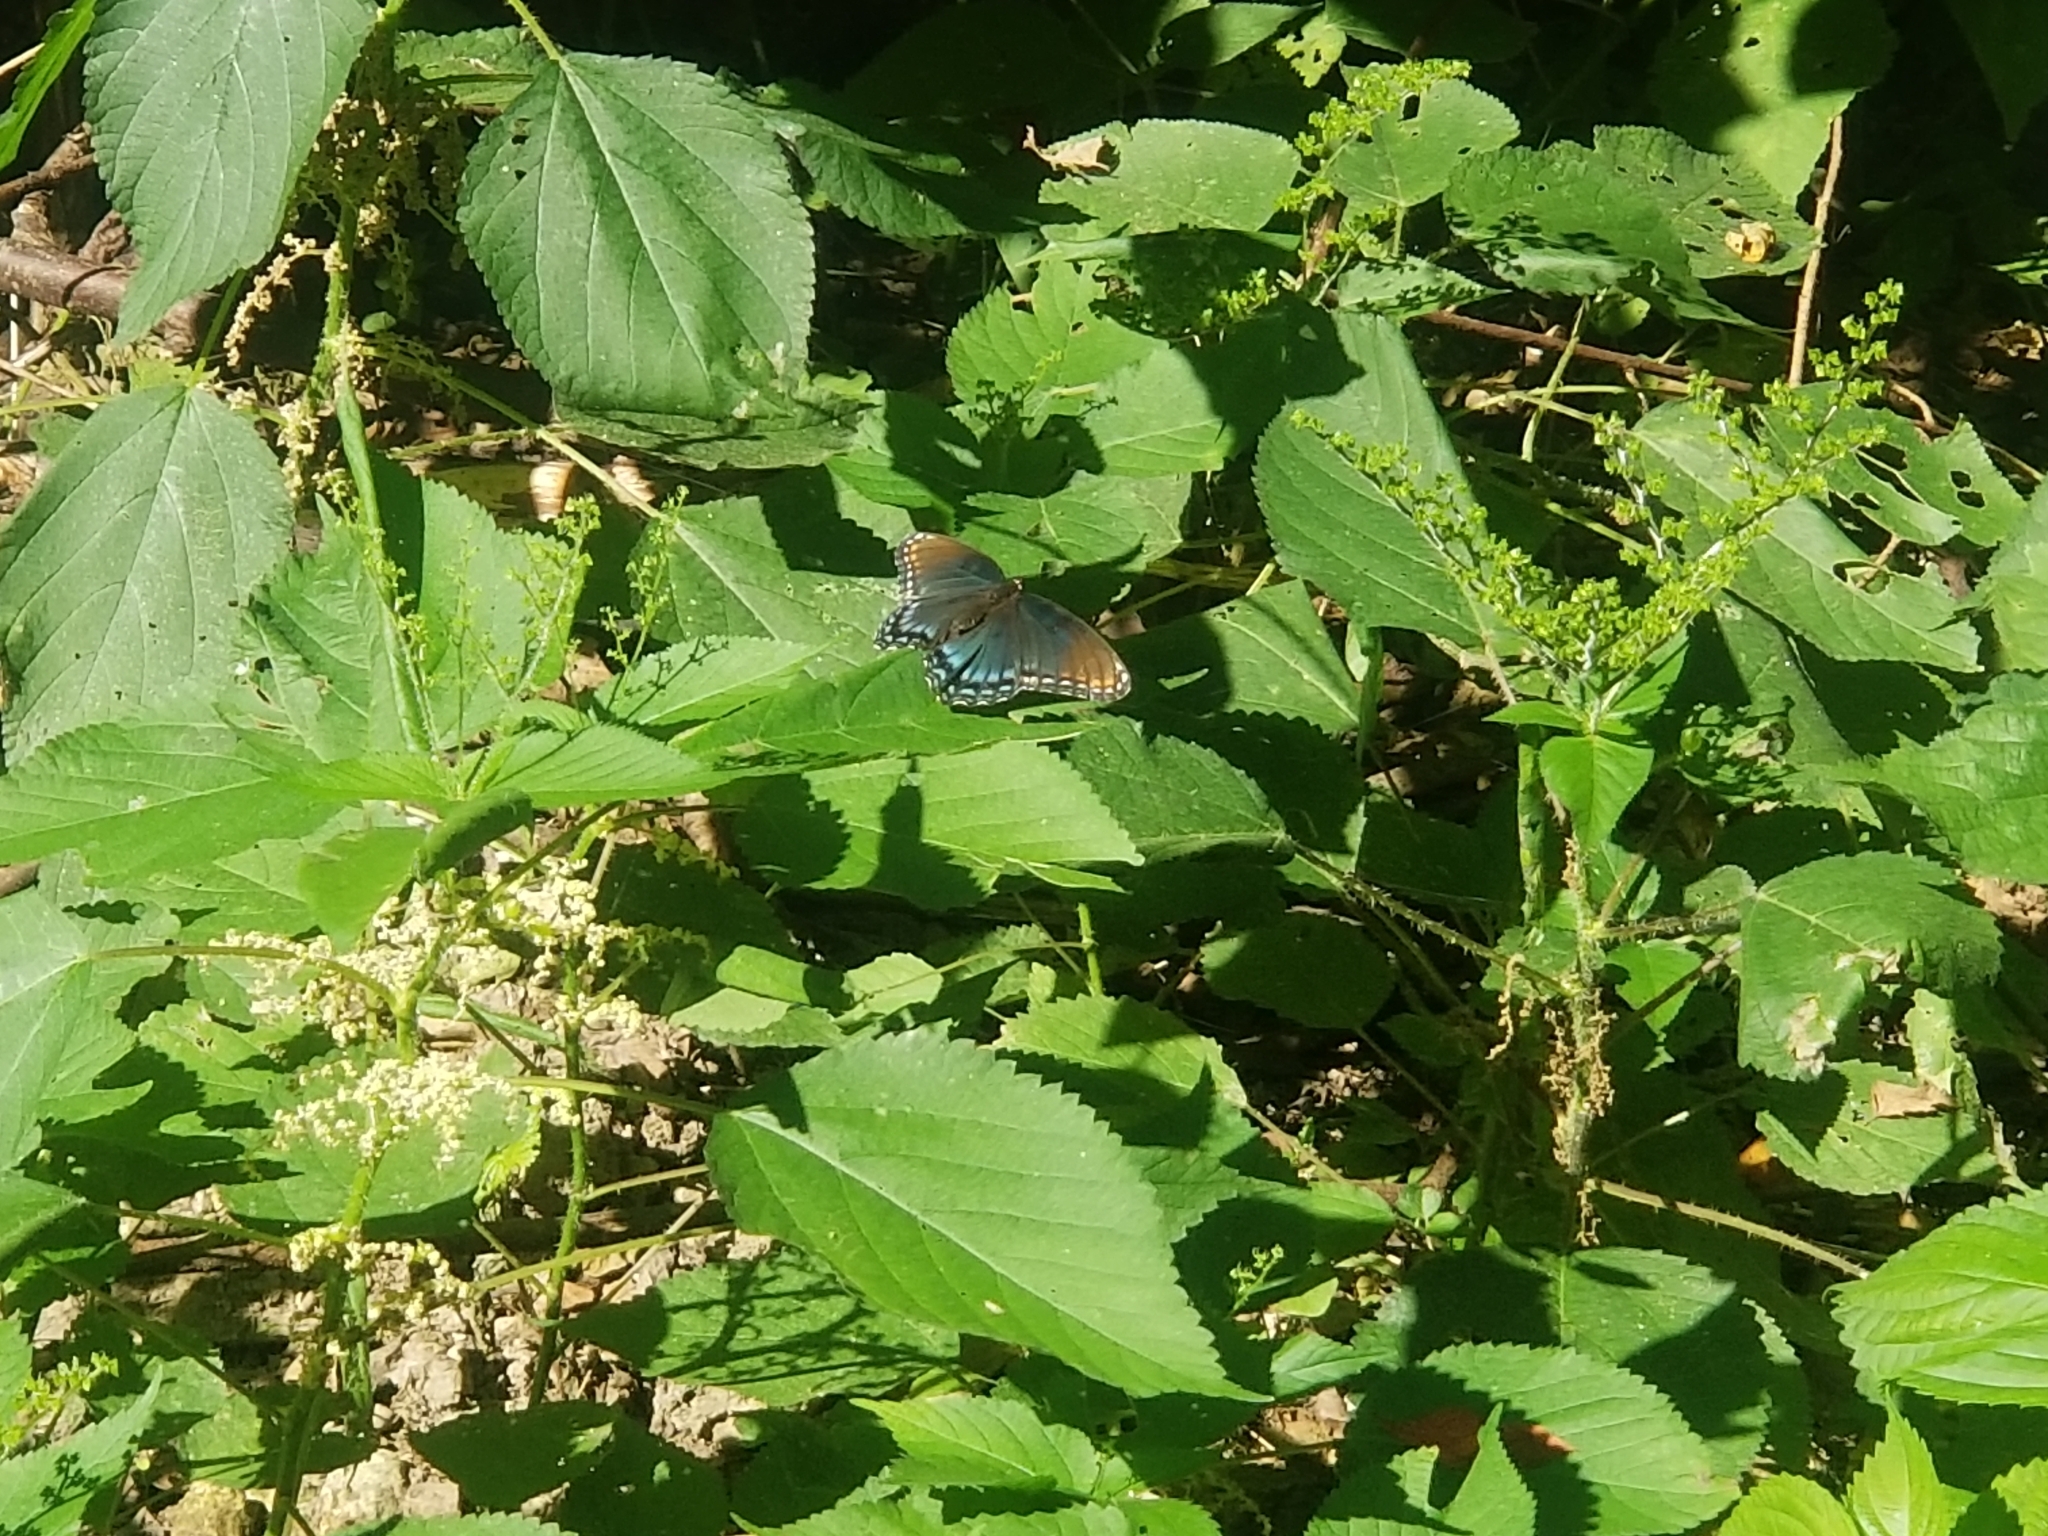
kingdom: Animalia
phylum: Arthropoda
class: Insecta
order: Lepidoptera
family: Nymphalidae
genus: Limenitis
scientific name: Limenitis astyanax
